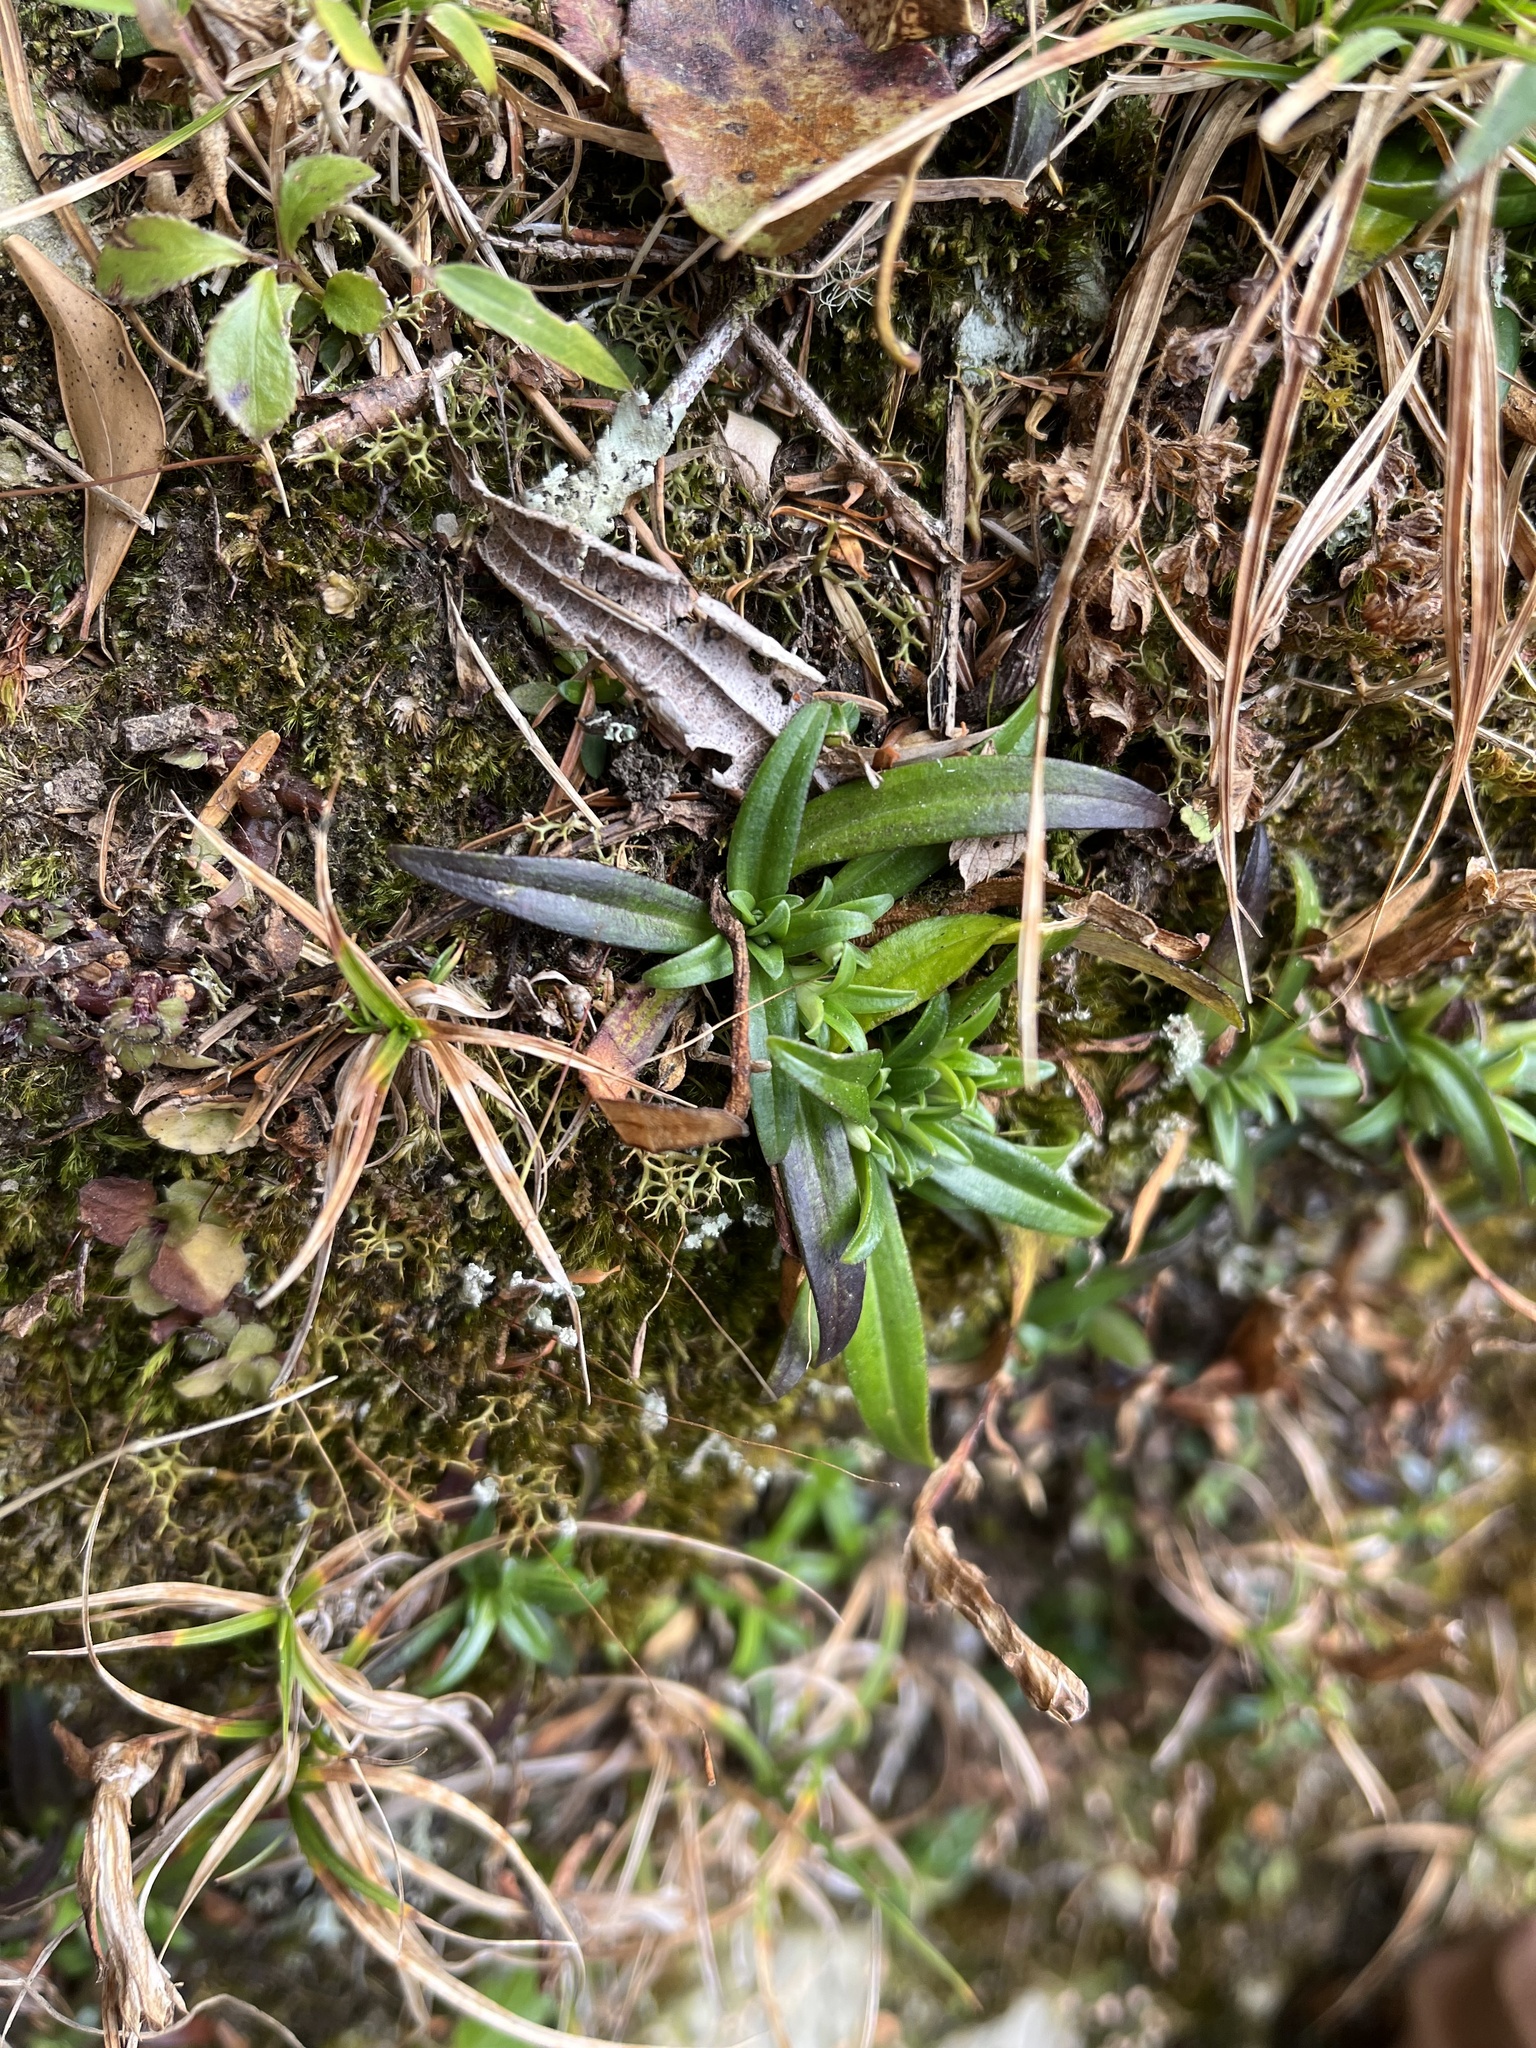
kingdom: Plantae
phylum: Tracheophyta
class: Magnoliopsida
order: Gentianales
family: Gentianaceae
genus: Gentiana
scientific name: Gentiana davidii
